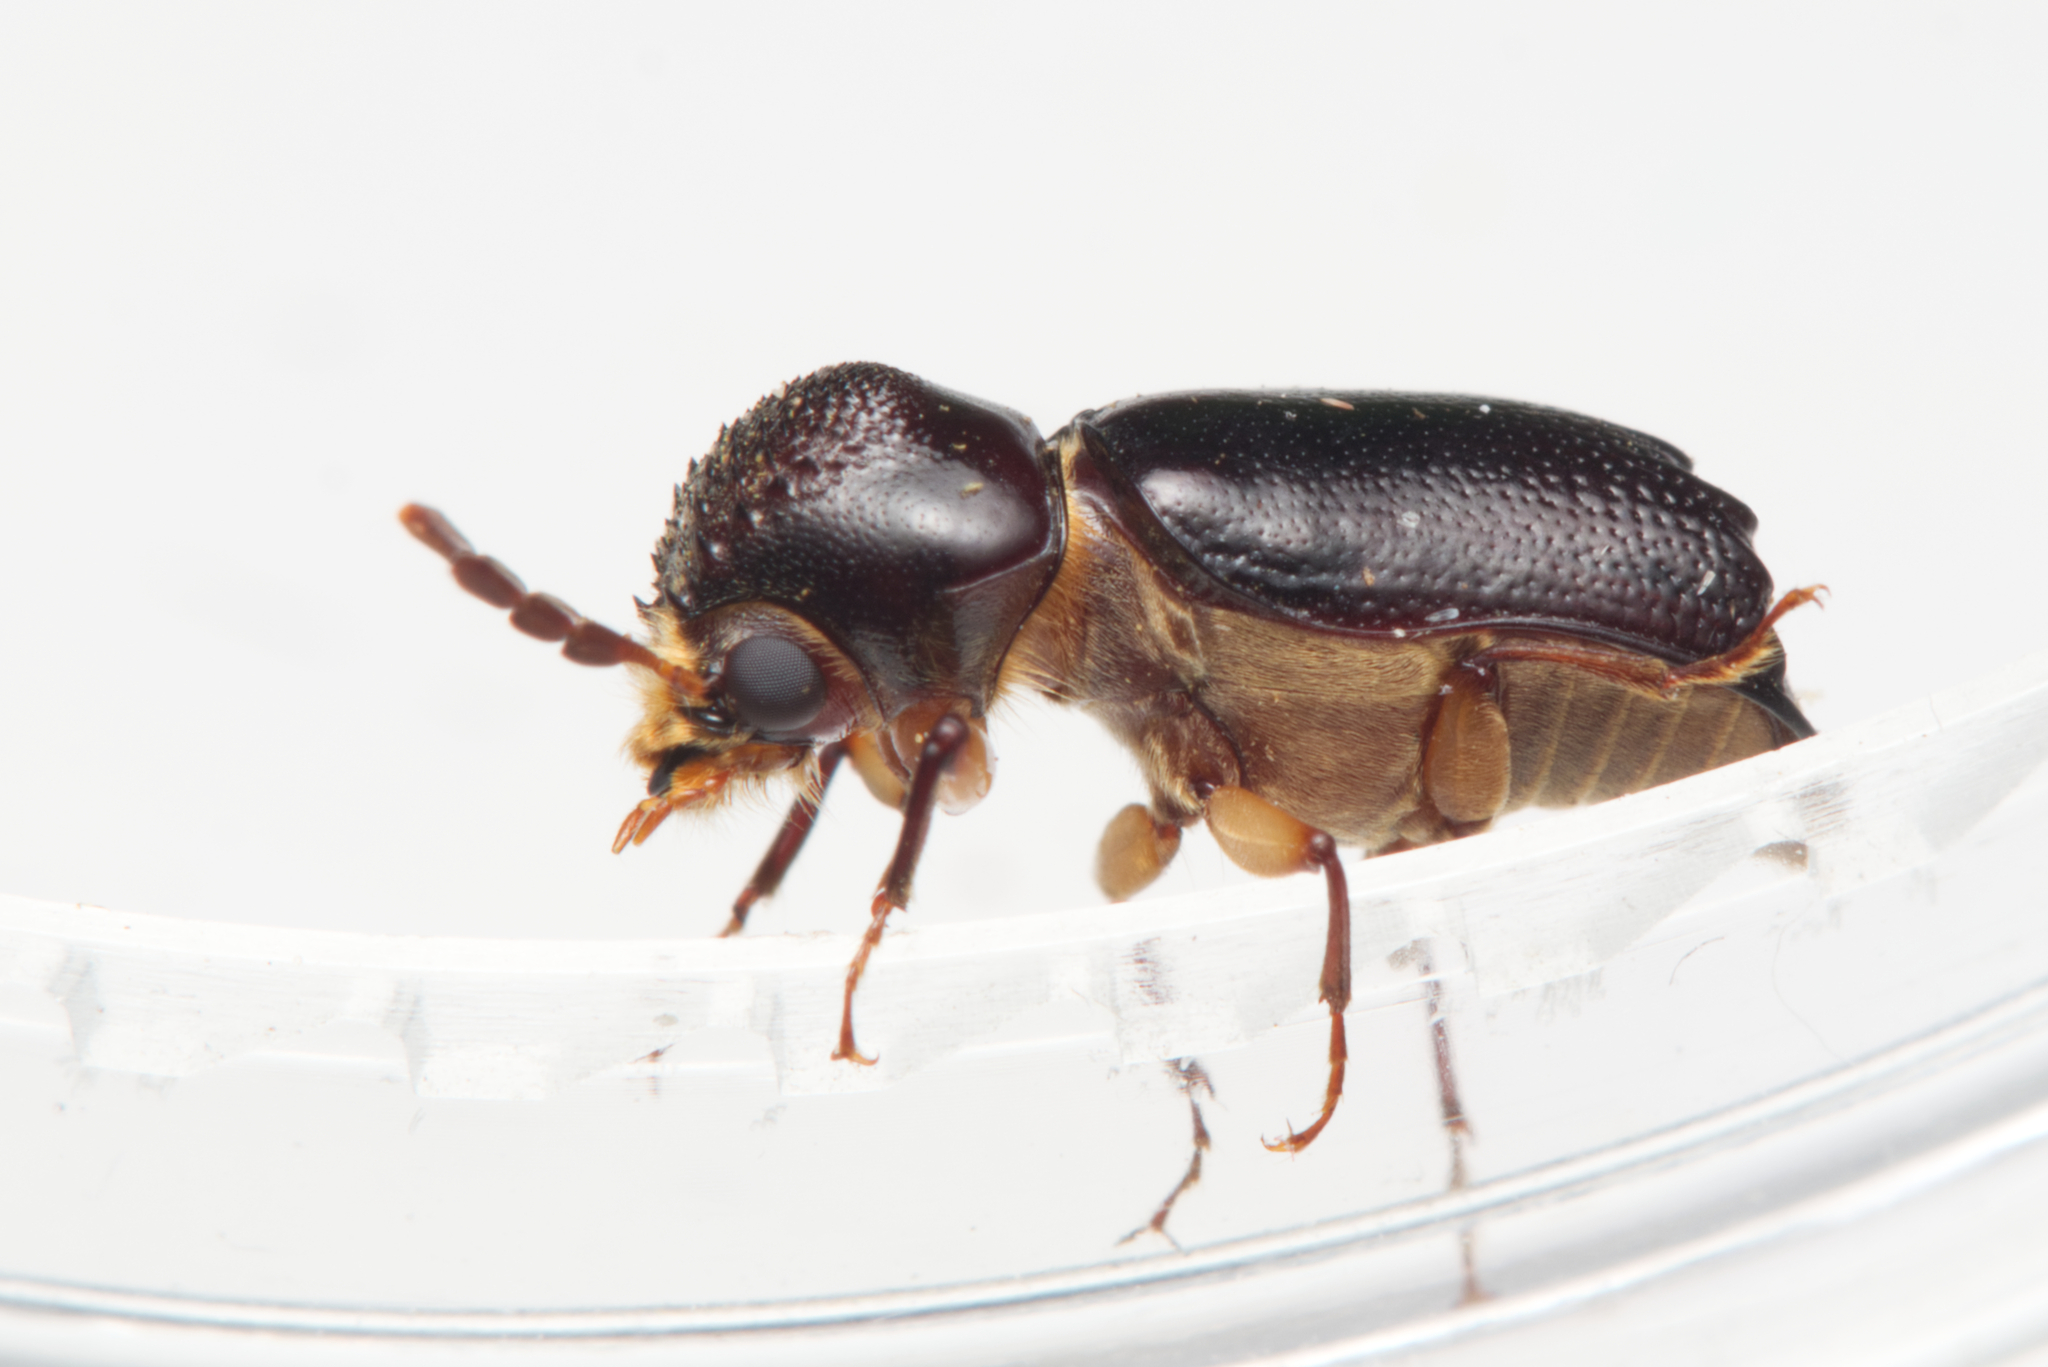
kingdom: Animalia
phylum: Arthropoda
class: Insecta
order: Coleoptera
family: Bostrichidae
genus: Xylothrips
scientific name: Xylothrips religiosus
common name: Powderpost beetle
